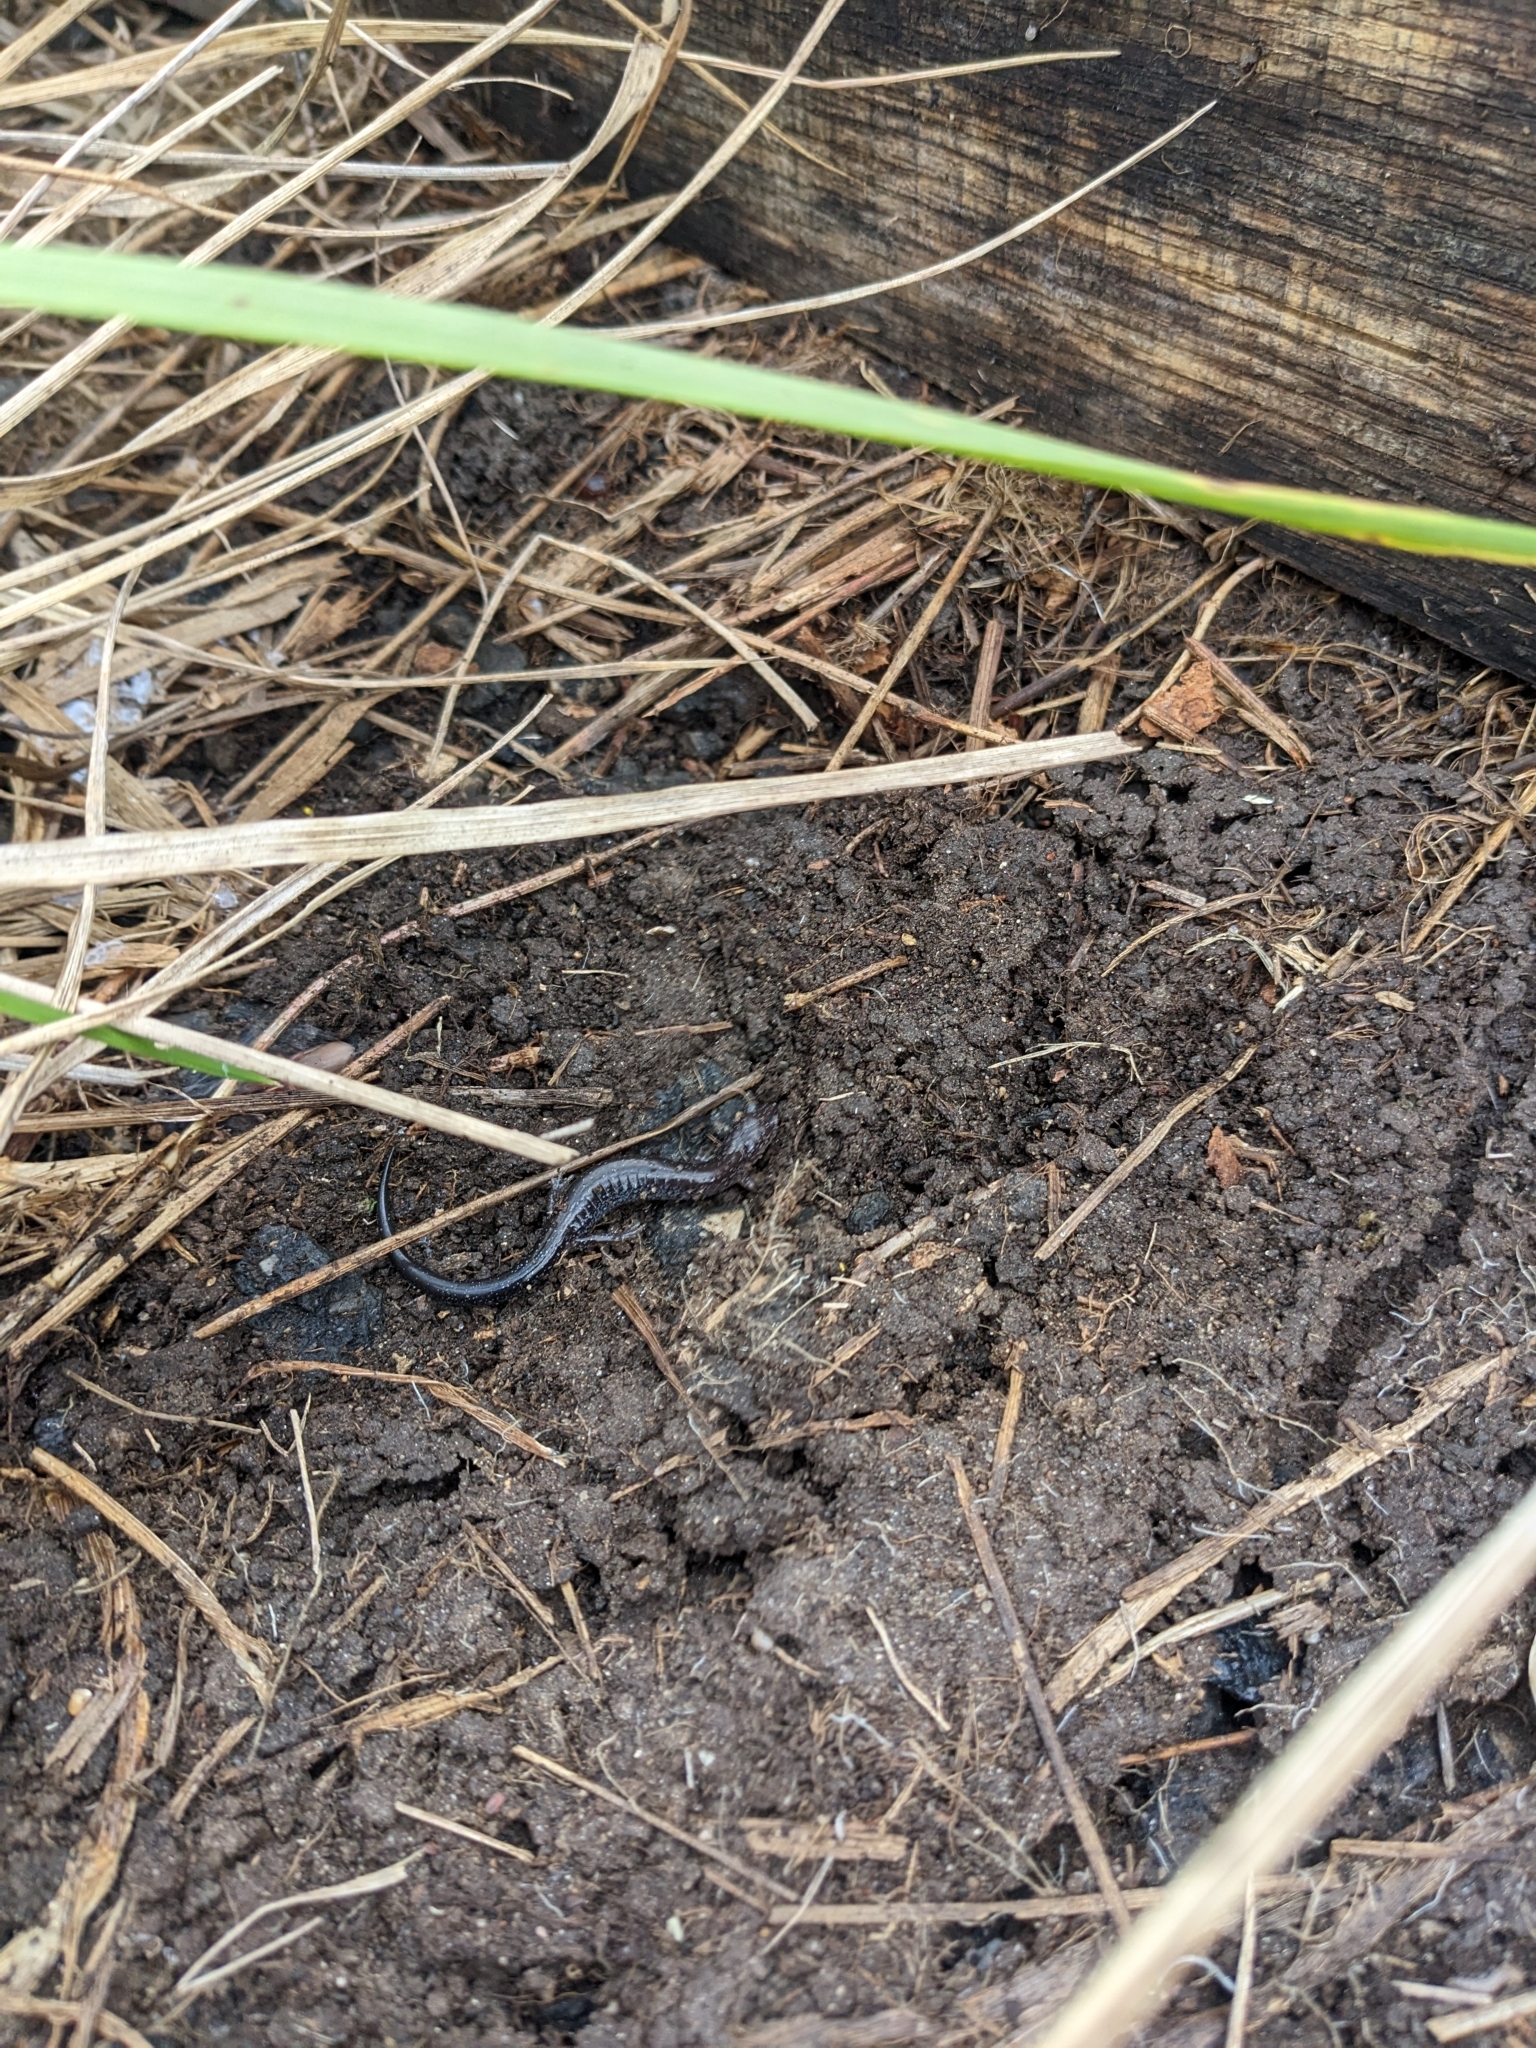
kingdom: Animalia
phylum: Chordata
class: Amphibia
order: Caudata
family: Plethodontidae
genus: Plethodon
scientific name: Plethodon cinereus
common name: Redback salamander
